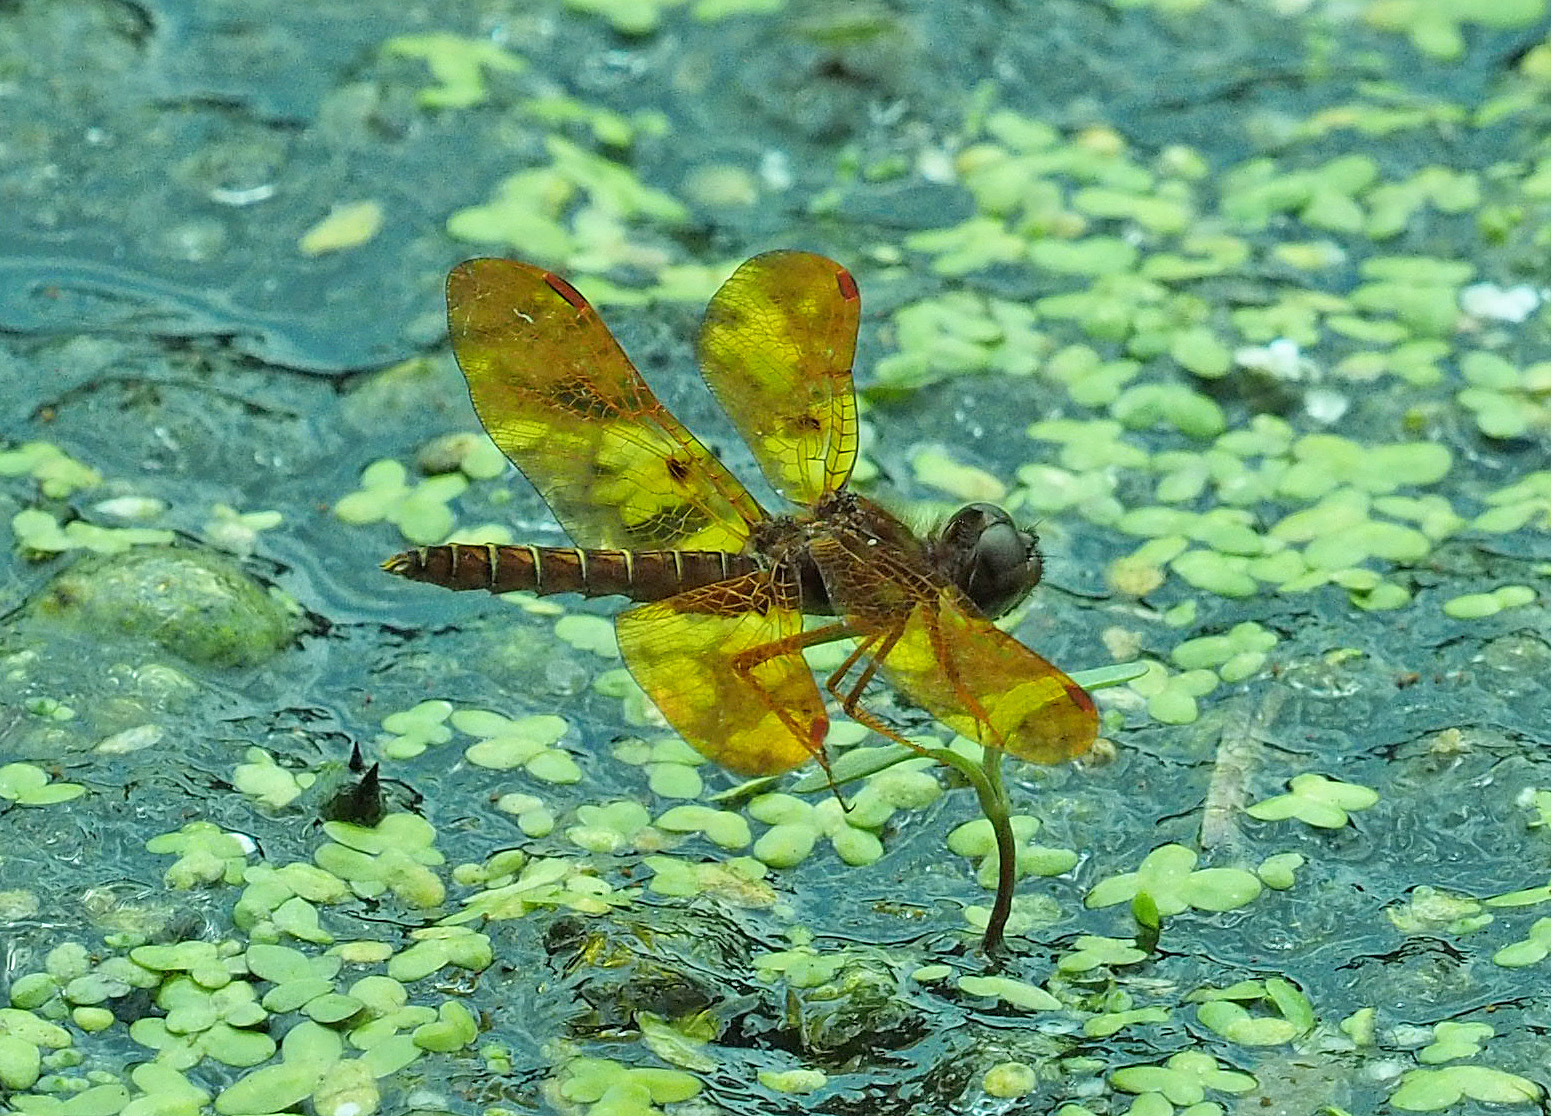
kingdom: Animalia
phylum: Arthropoda
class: Insecta
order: Odonata
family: Libellulidae
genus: Perithemis
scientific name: Perithemis tenera
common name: Eastern amberwing
